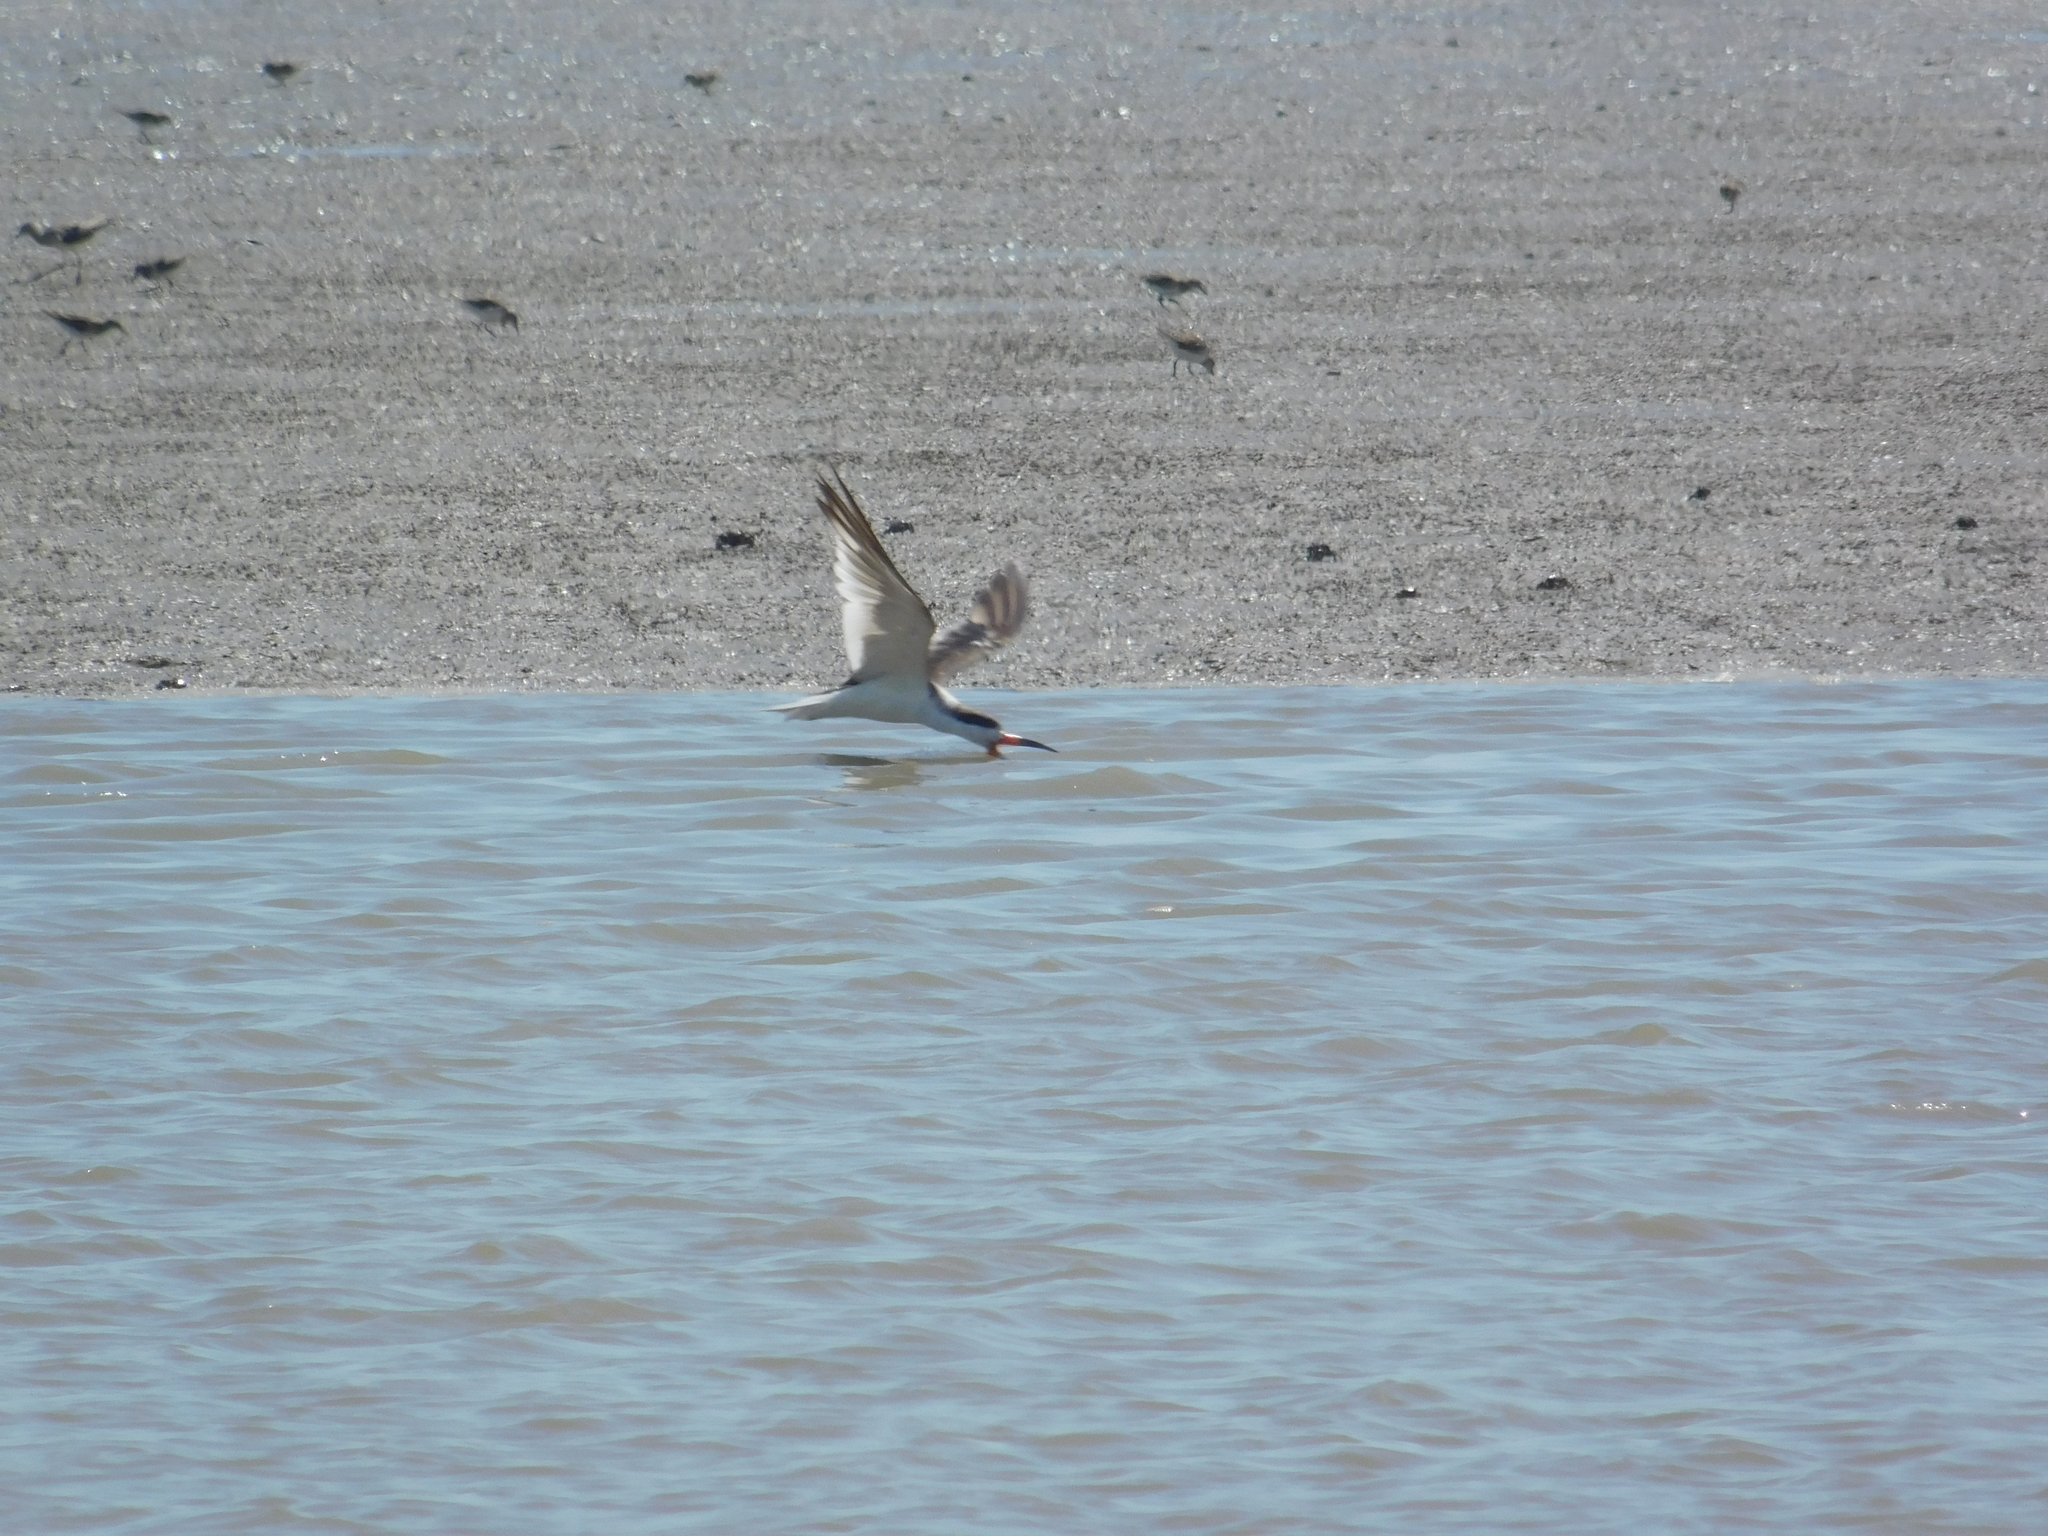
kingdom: Animalia
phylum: Chordata
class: Aves
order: Charadriiformes
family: Laridae
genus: Rynchops
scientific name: Rynchops niger
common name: Black skimmer
